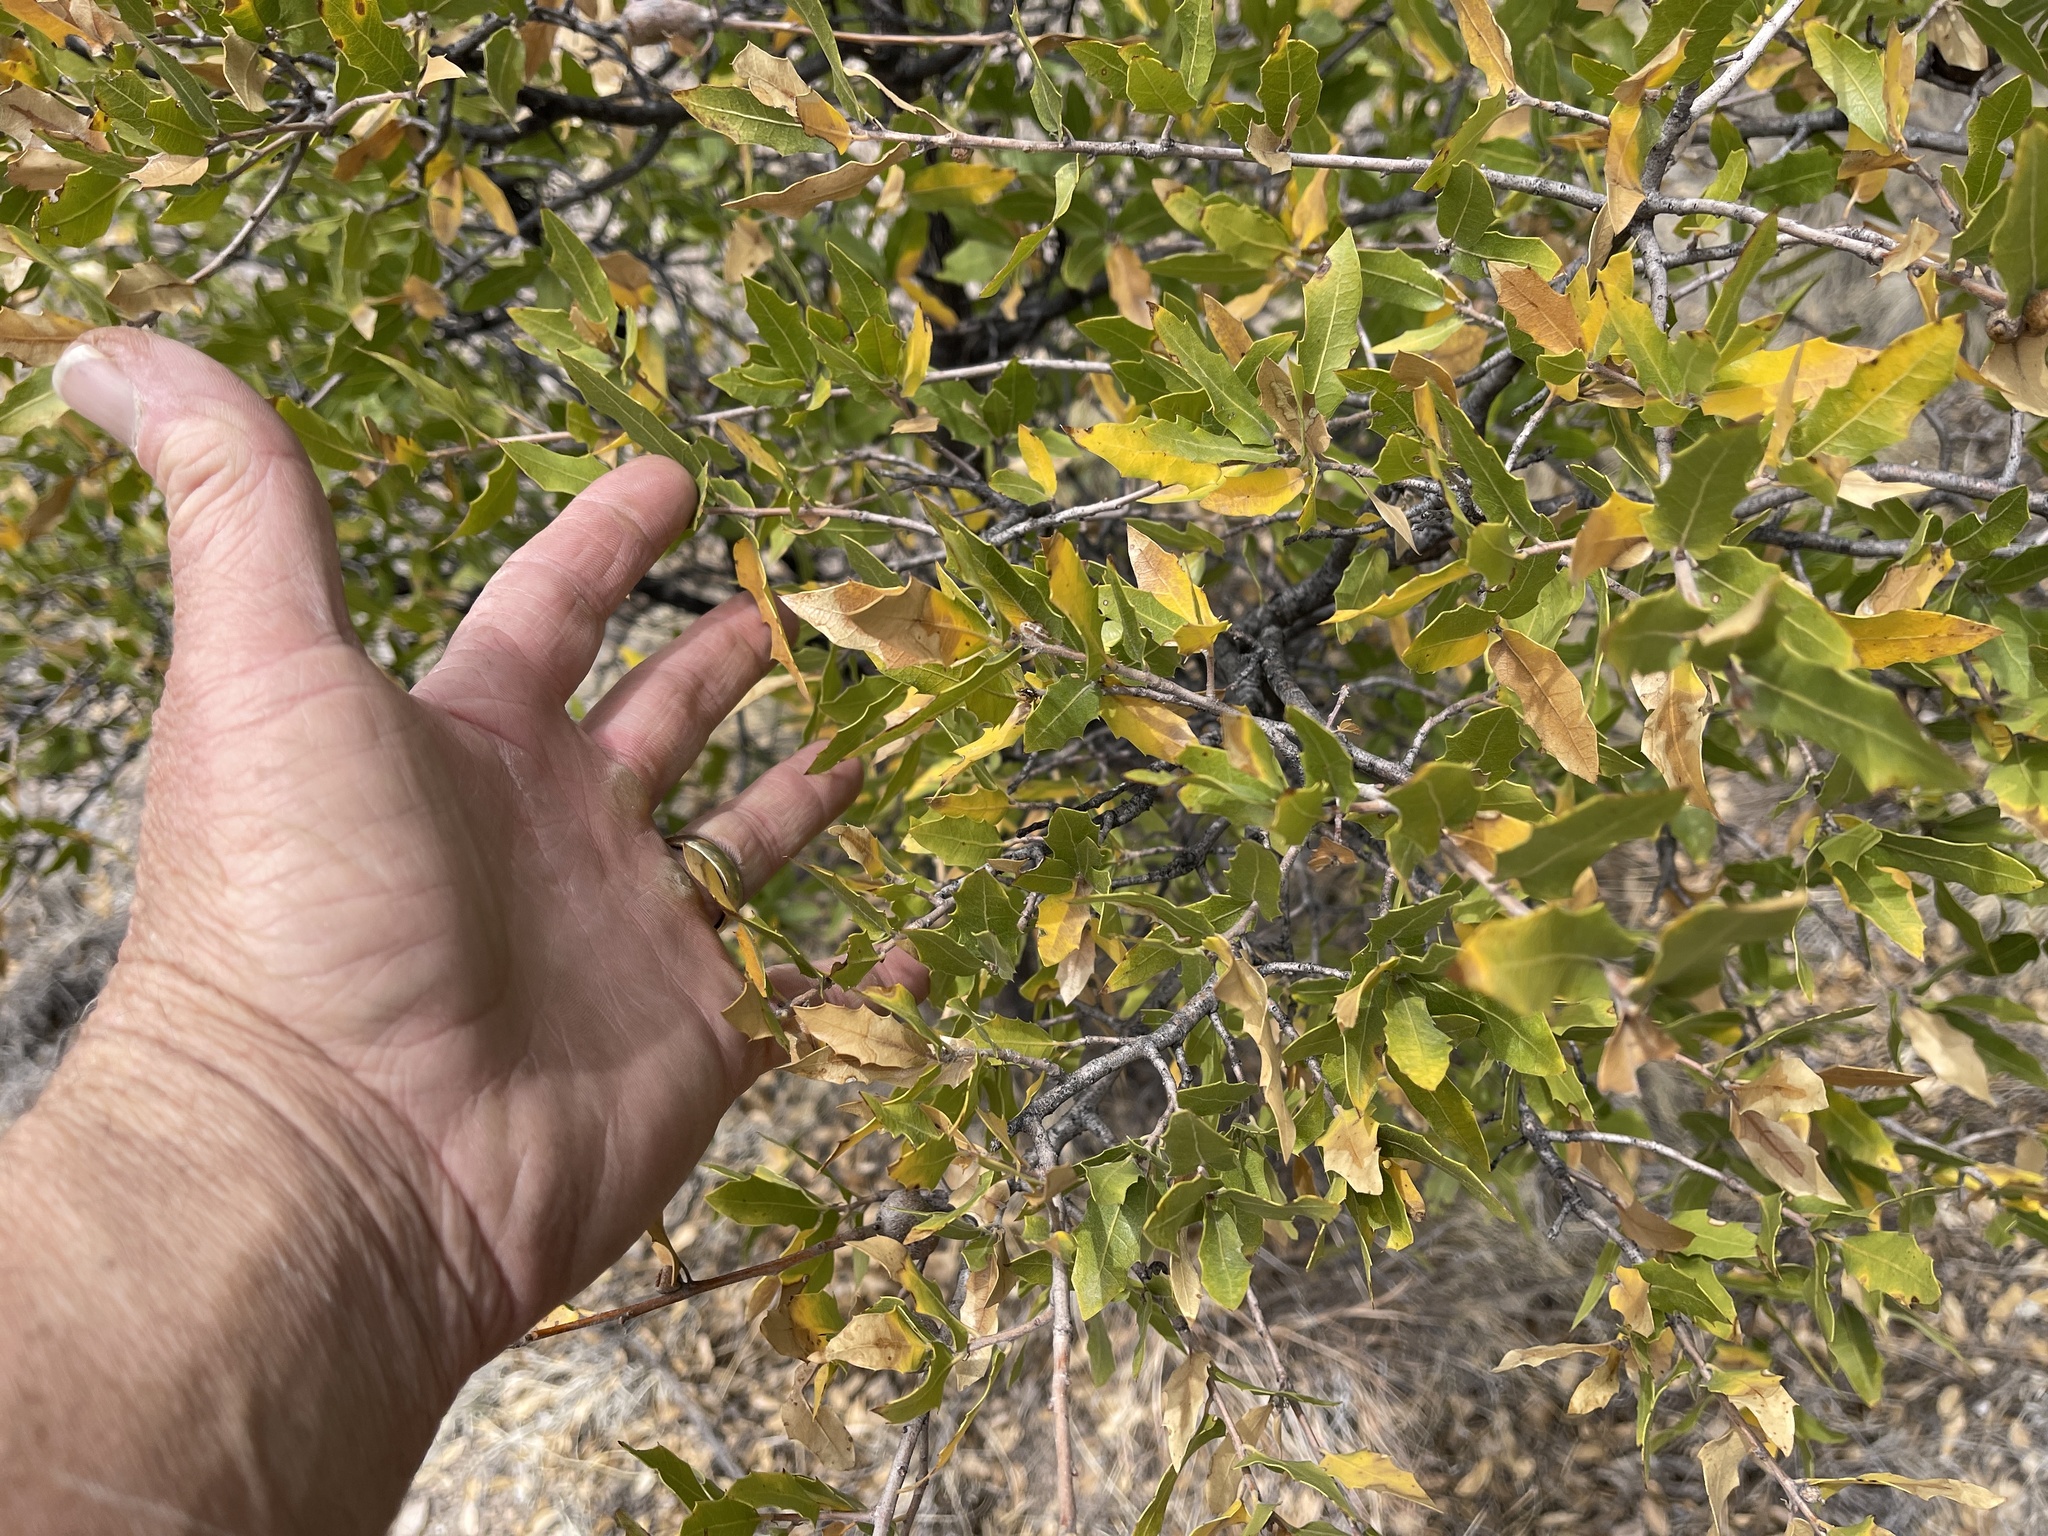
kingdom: Plantae
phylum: Tracheophyta
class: Magnoliopsida
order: Fagales
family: Fagaceae
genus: Quercus
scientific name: Quercus emoryi
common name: Emory oak
